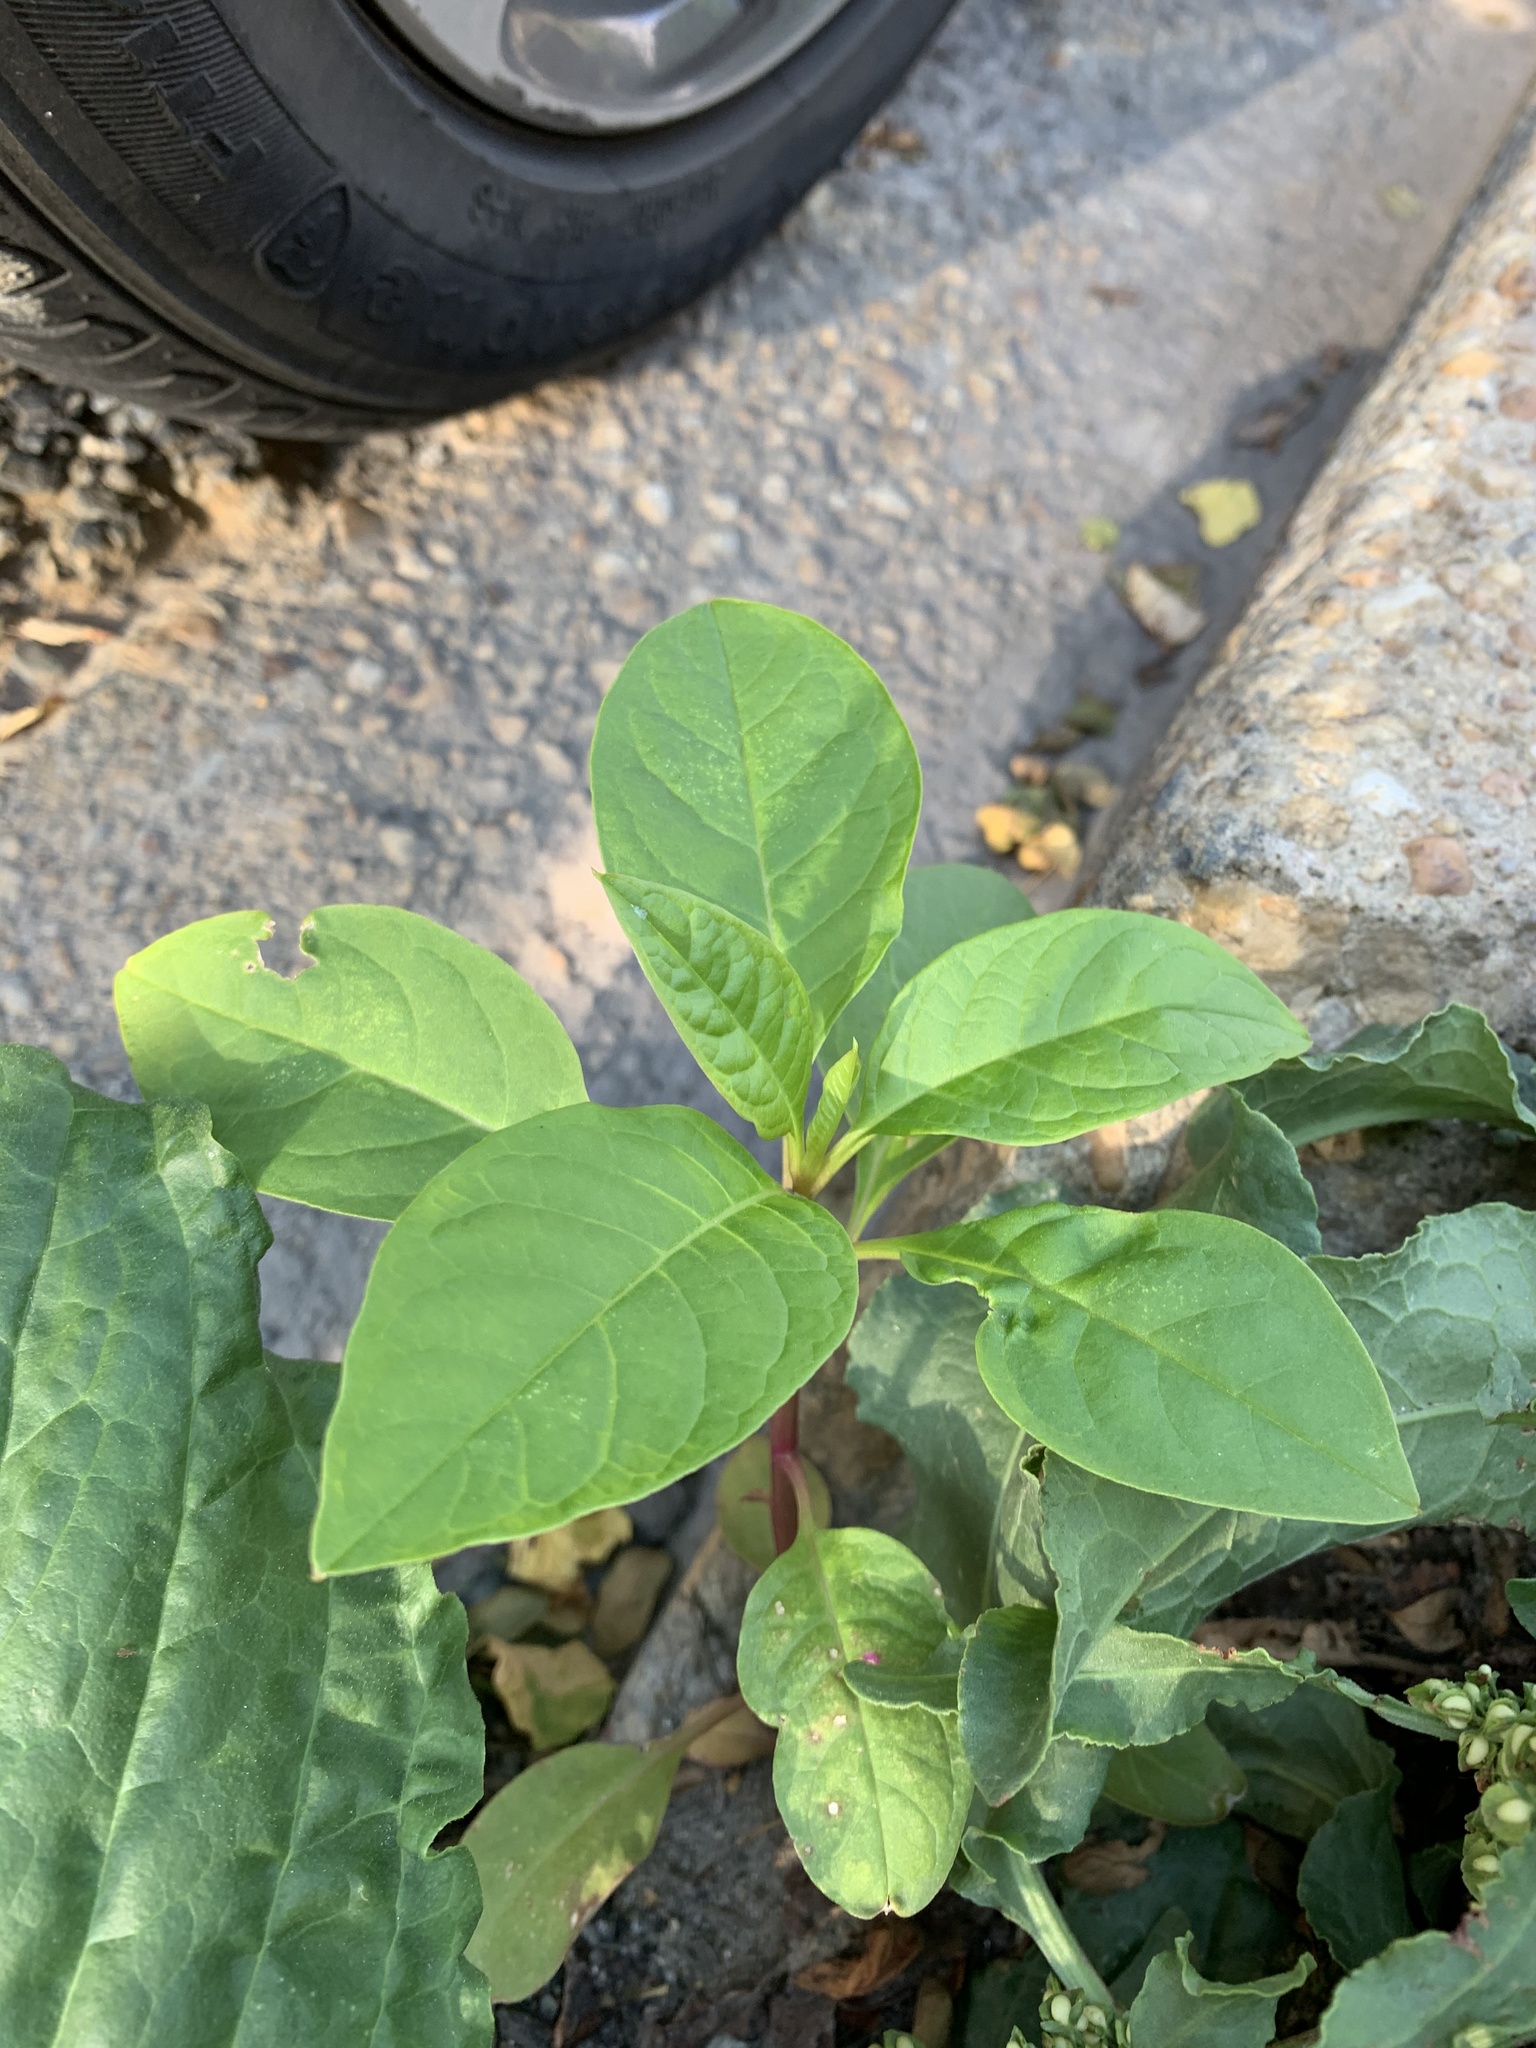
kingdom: Plantae
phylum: Tracheophyta
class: Magnoliopsida
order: Caryophyllales
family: Phytolaccaceae
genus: Phytolacca
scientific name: Phytolacca americana
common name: American pokeweed
